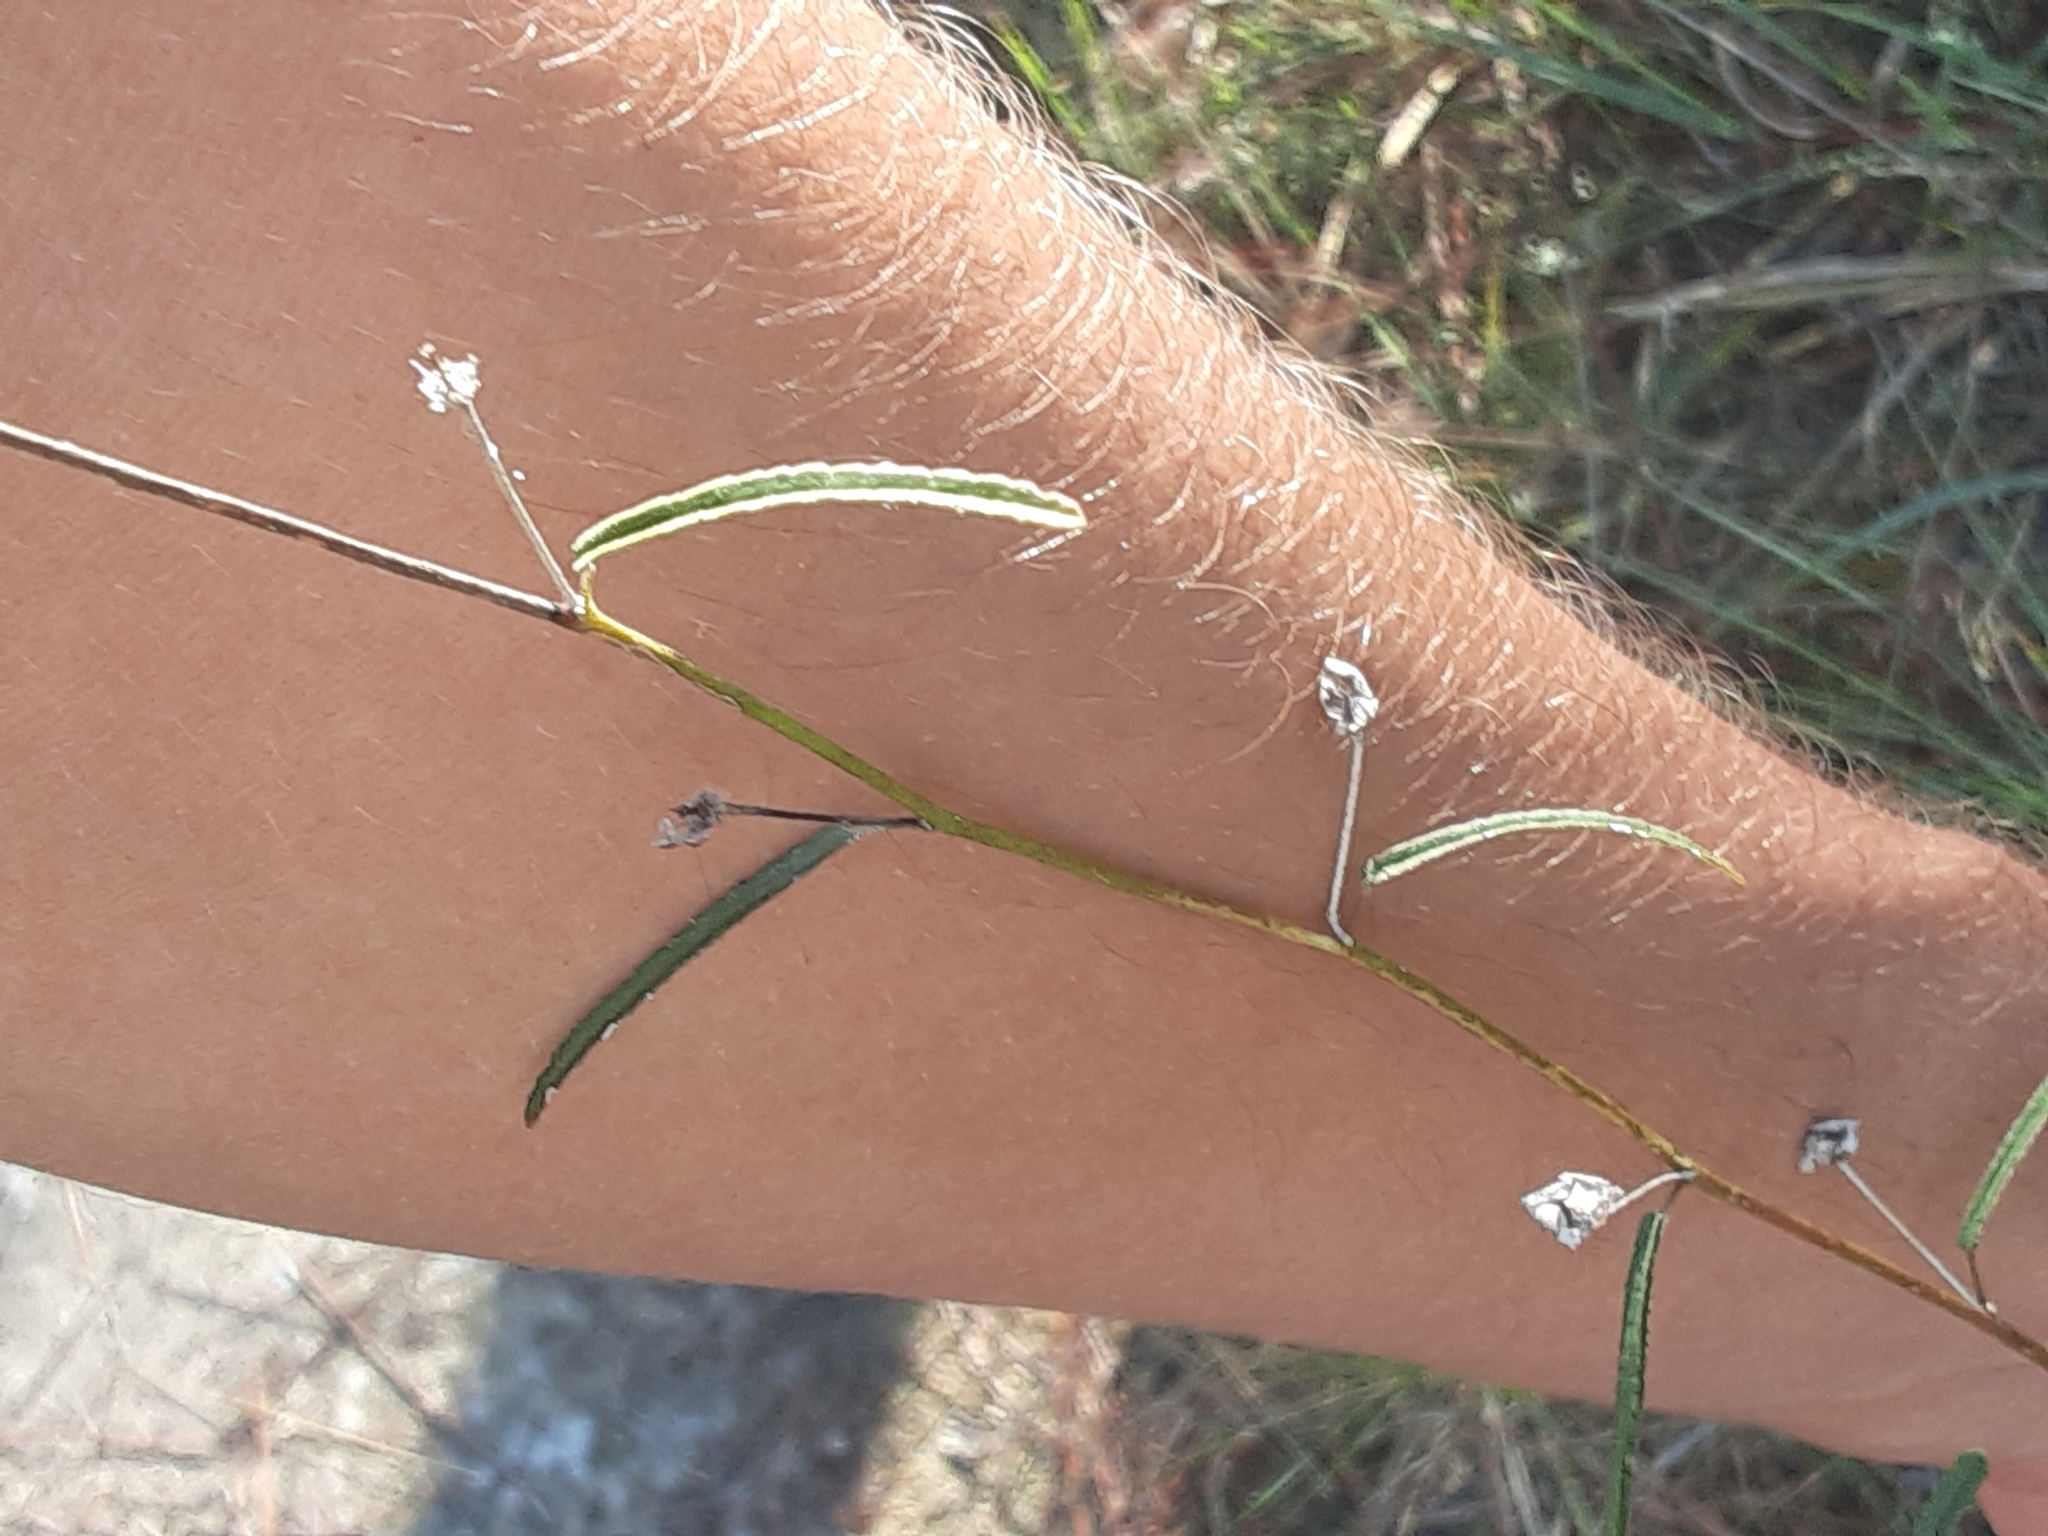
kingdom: Plantae
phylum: Tracheophyta
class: Magnoliopsida
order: Malvales
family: Malvaceae
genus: Sida
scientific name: Sida elliottii
